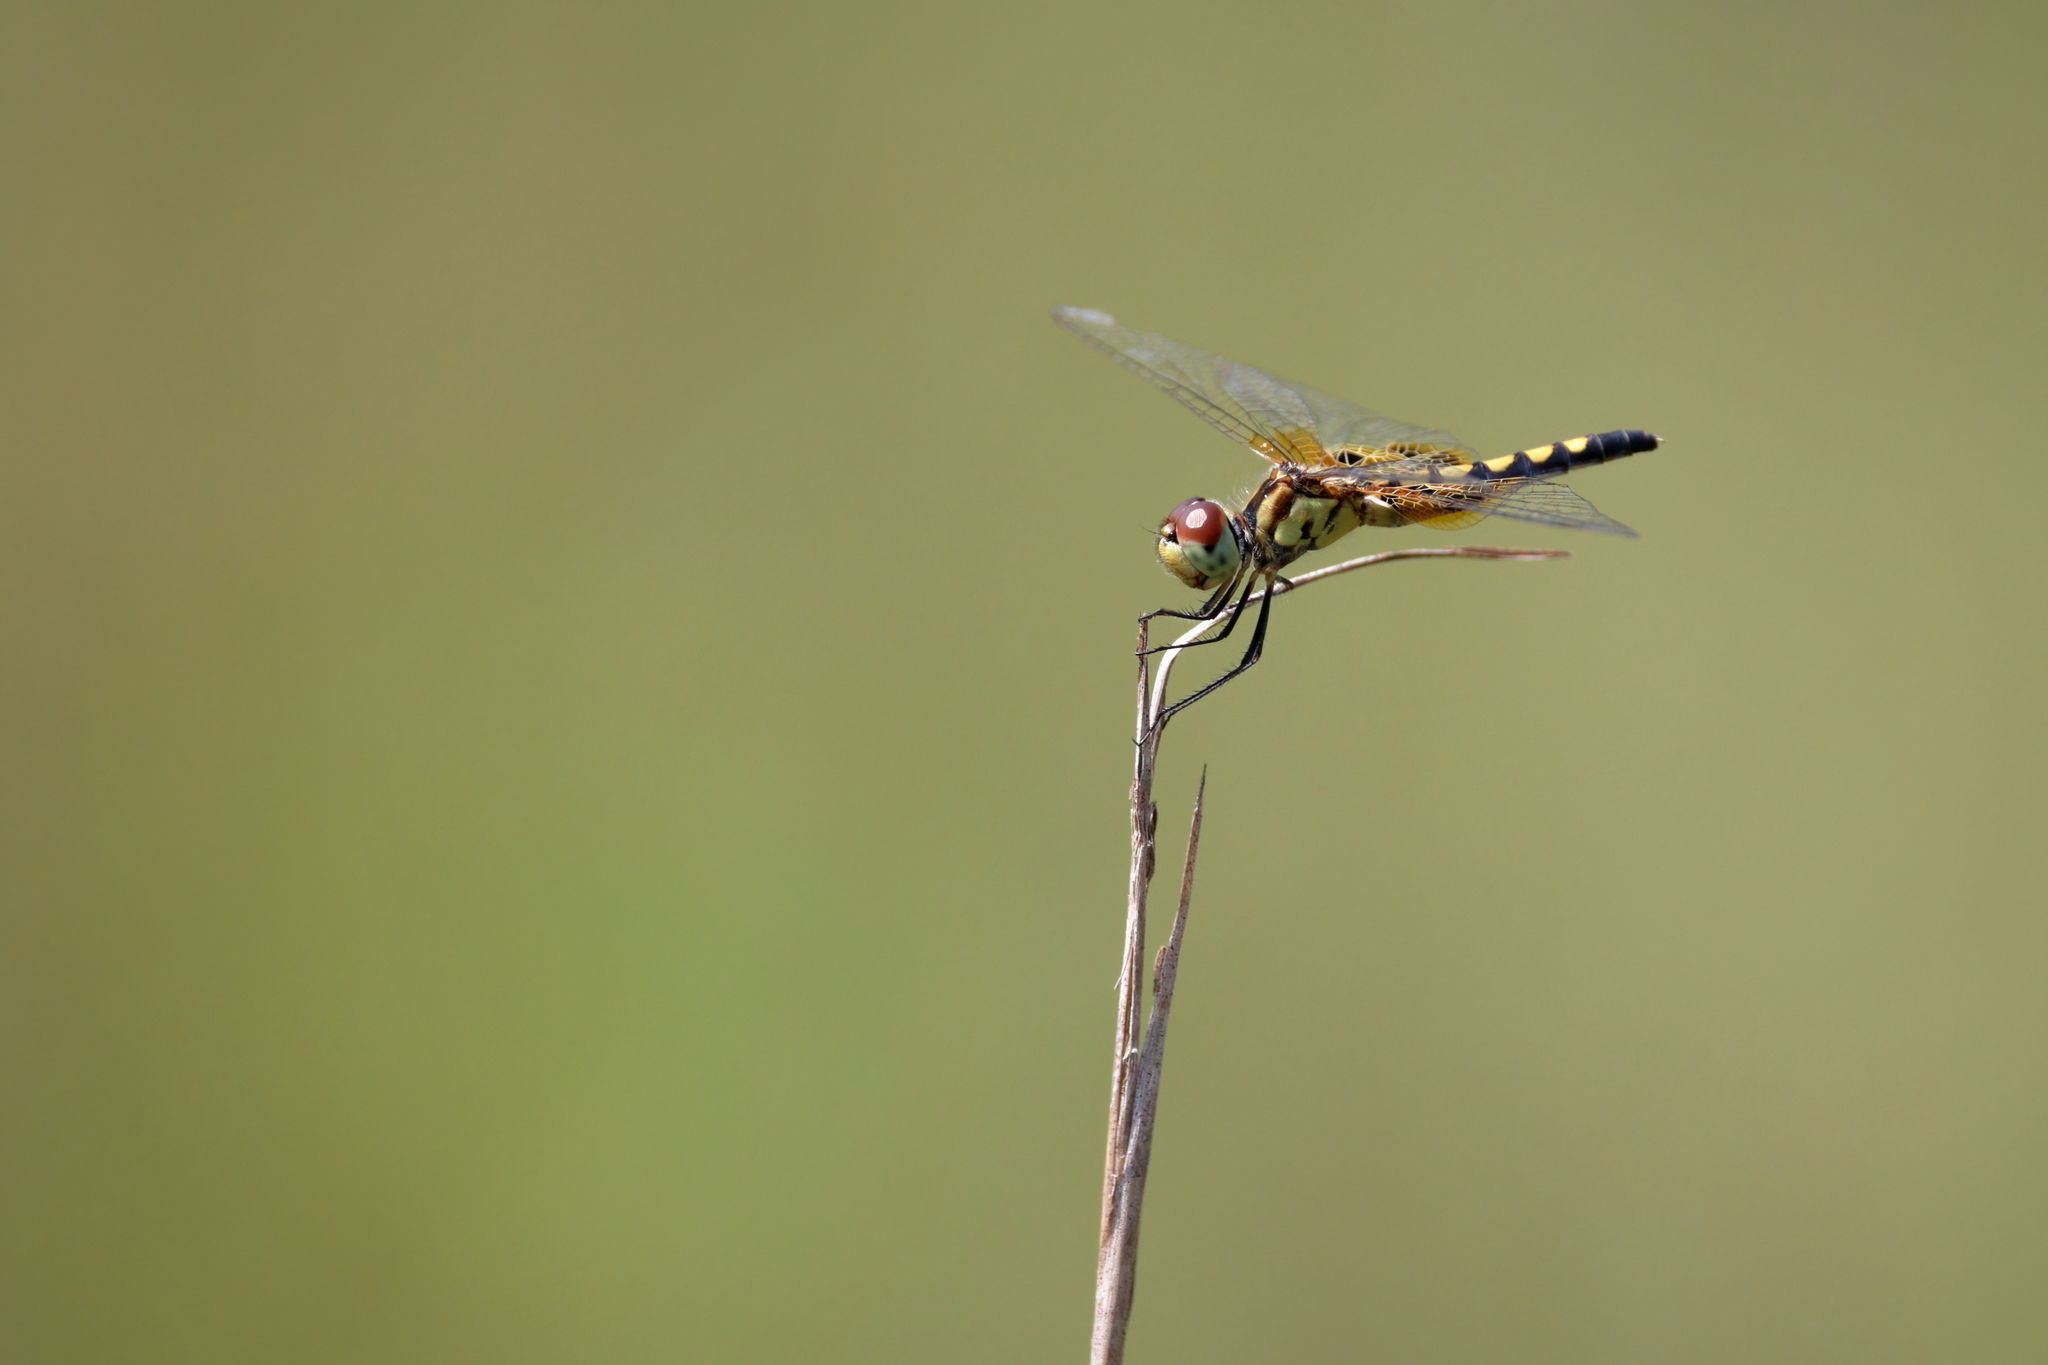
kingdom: Animalia
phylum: Arthropoda
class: Insecta
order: Odonata
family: Libellulidae
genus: Celithemis
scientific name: Celithemis amanda
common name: Amanda's pennant
